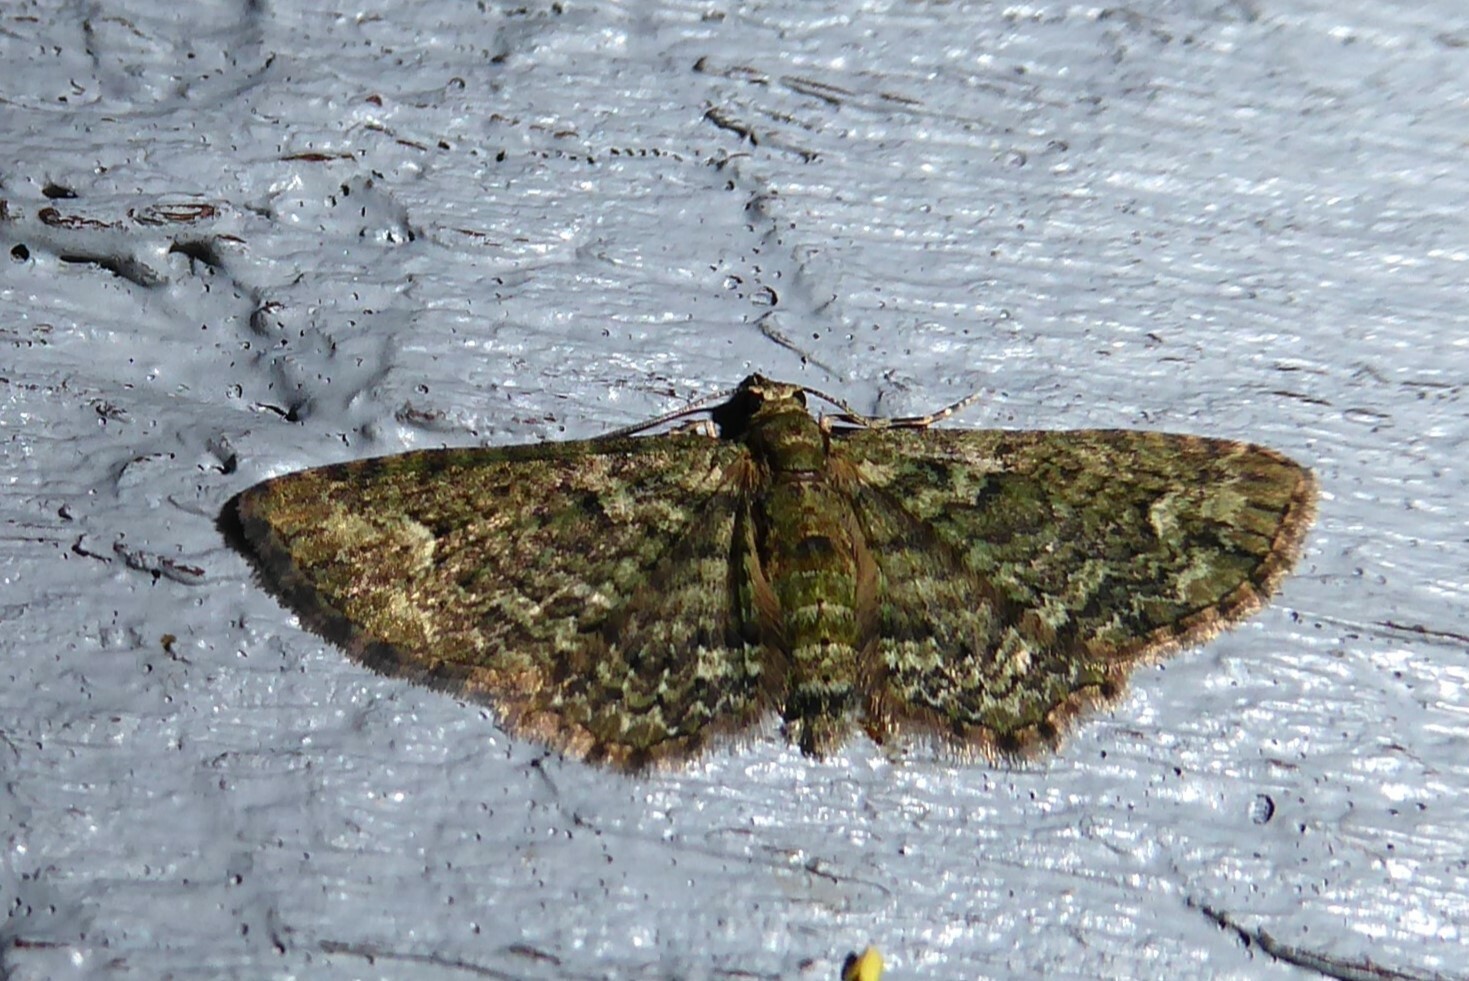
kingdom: Animalia
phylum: Arthropoda
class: Insecta
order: Lepidoptera
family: Geometridae
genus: Pasiphilodes
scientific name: Pasiphilodes testulata
